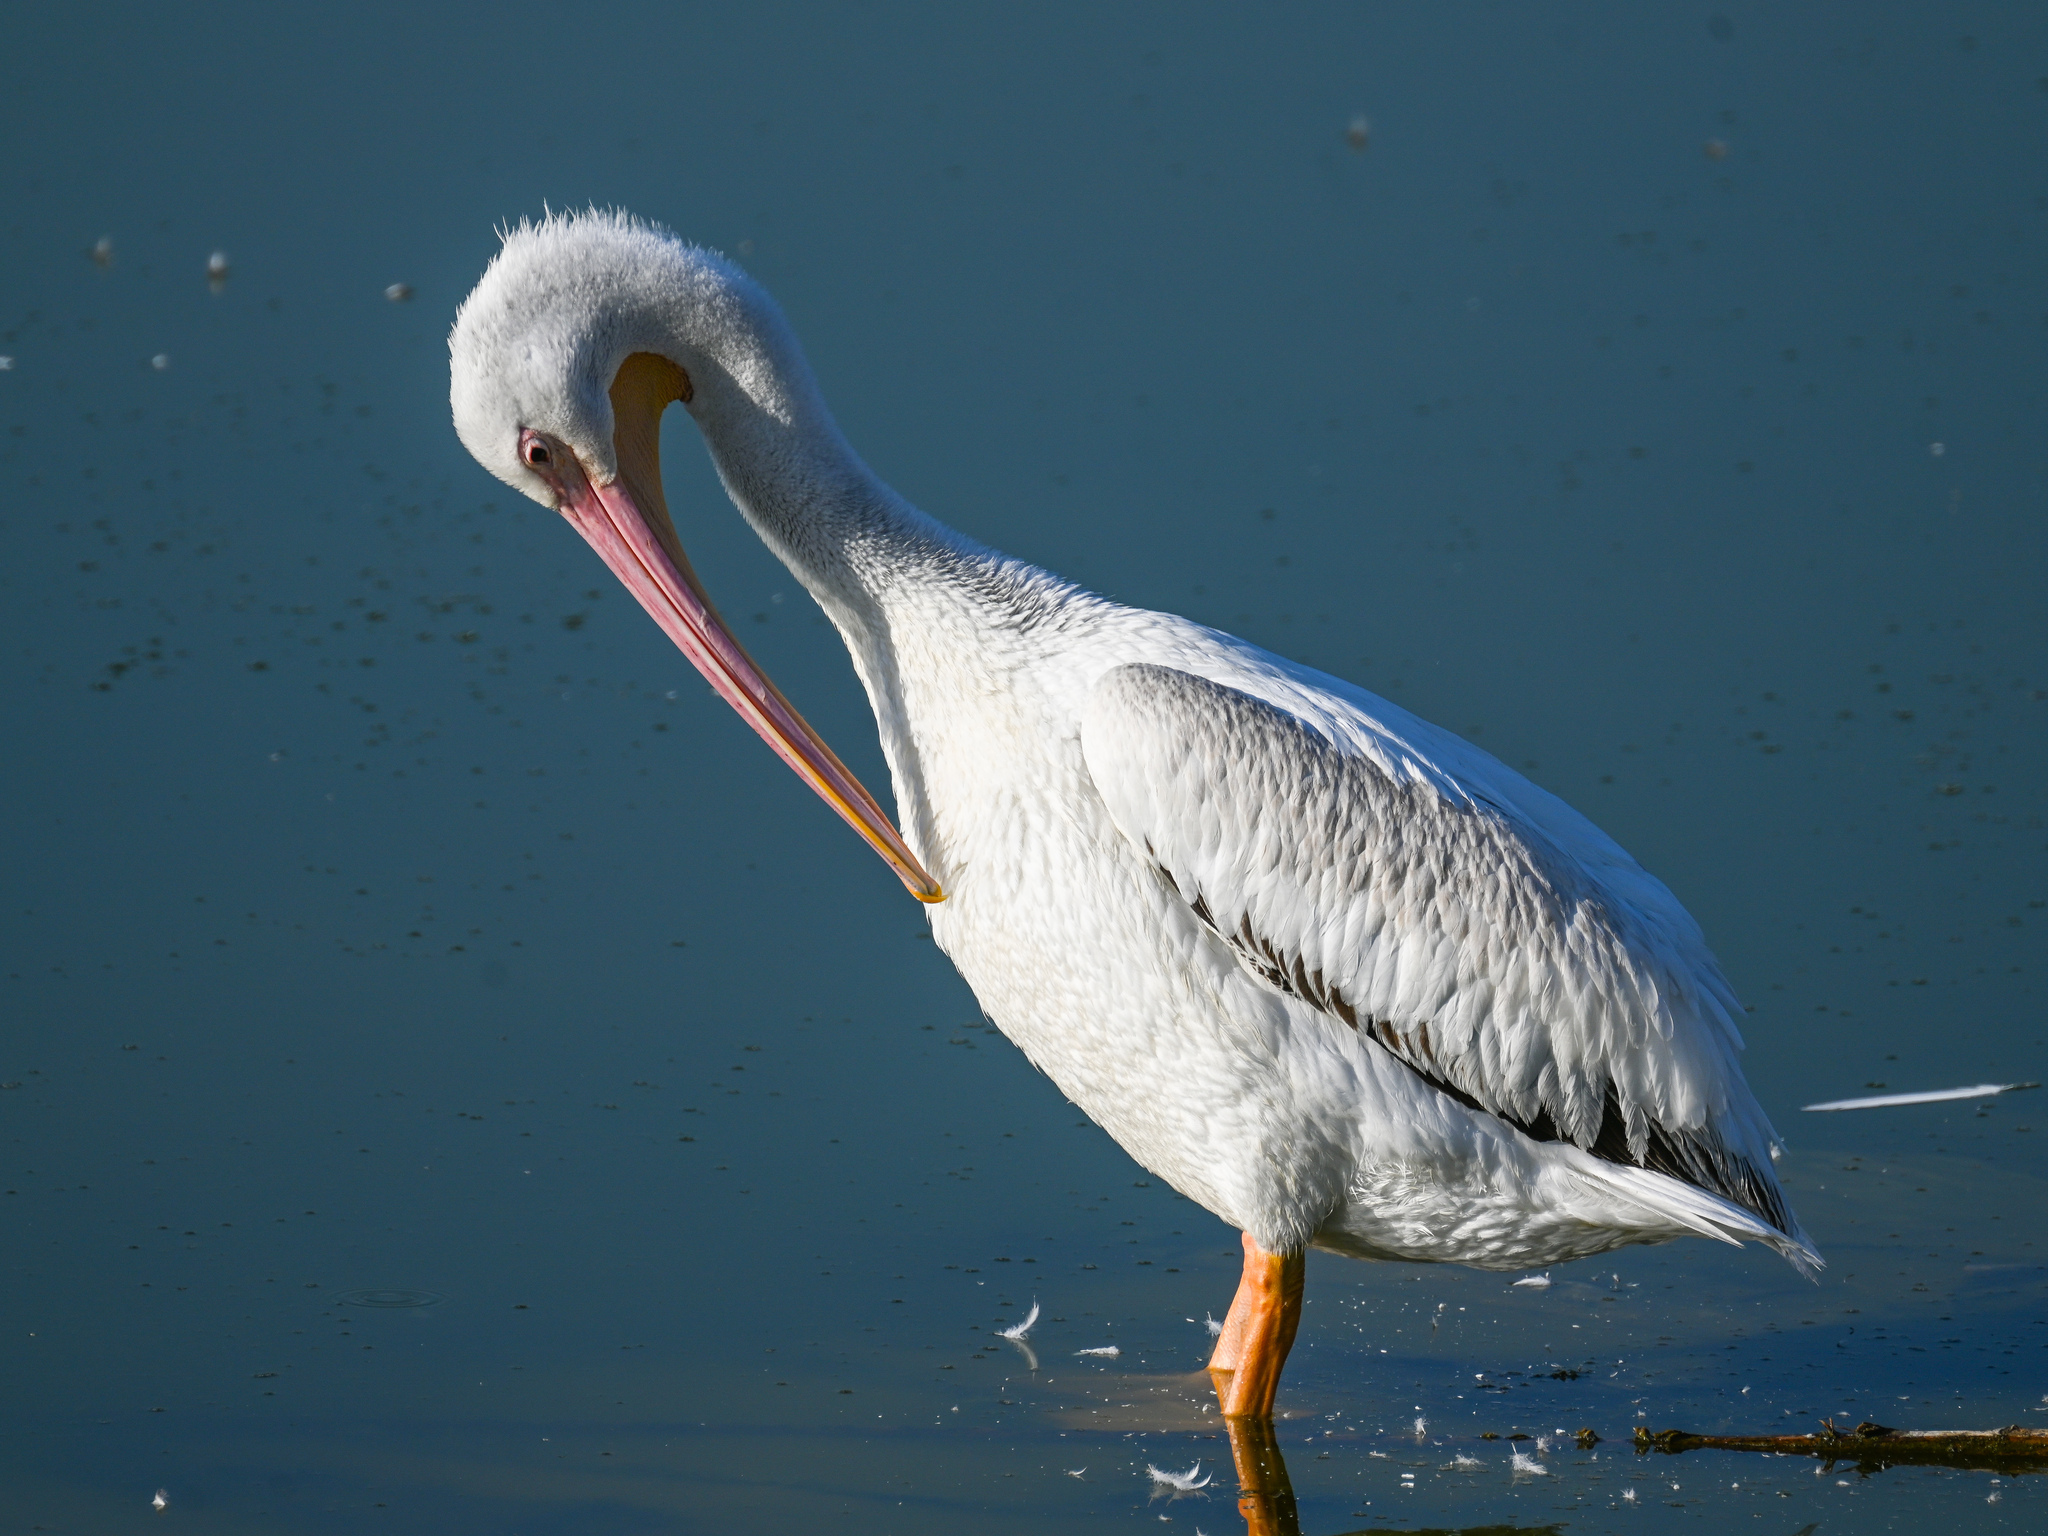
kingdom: Animalia
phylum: Chordata
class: Aves
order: Pelecaniformes
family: Pelecanidae
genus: Pelecanus
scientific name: Pelecanus erythrorhynchos
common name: American white pelican
